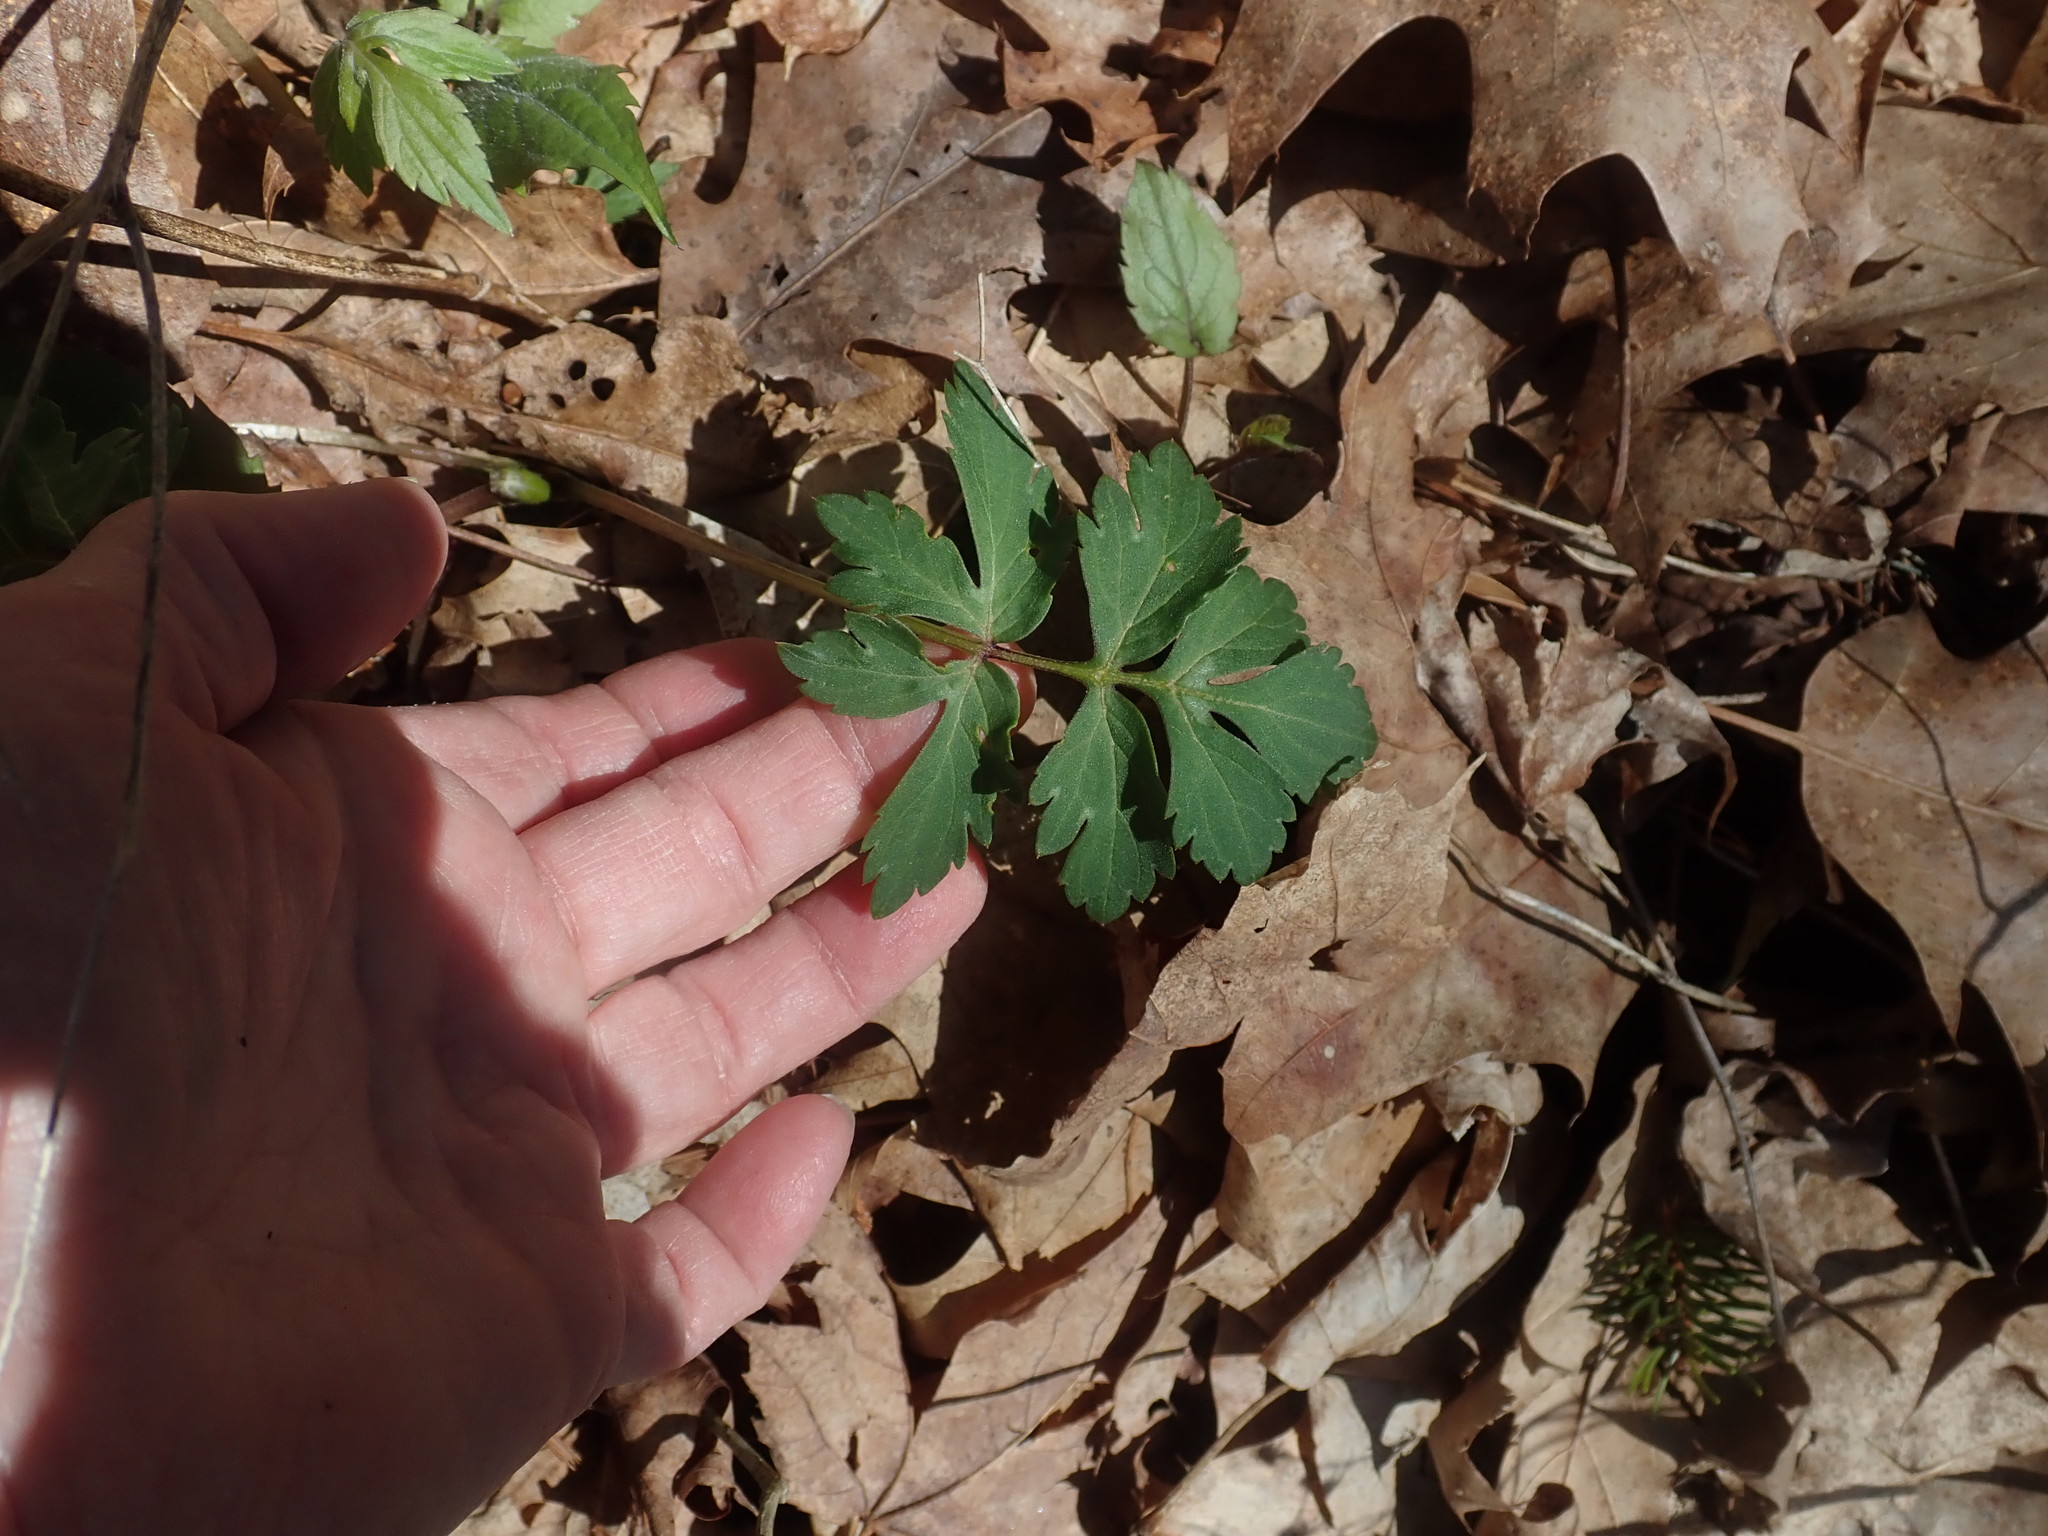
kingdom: Plantae
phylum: Tracheophyta
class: Magnoliopsida
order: Boraginales
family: Hydrophyllaceae
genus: Hydrophyllum
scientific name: Hydrophyllum virginianum
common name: Virginia waterleaf
